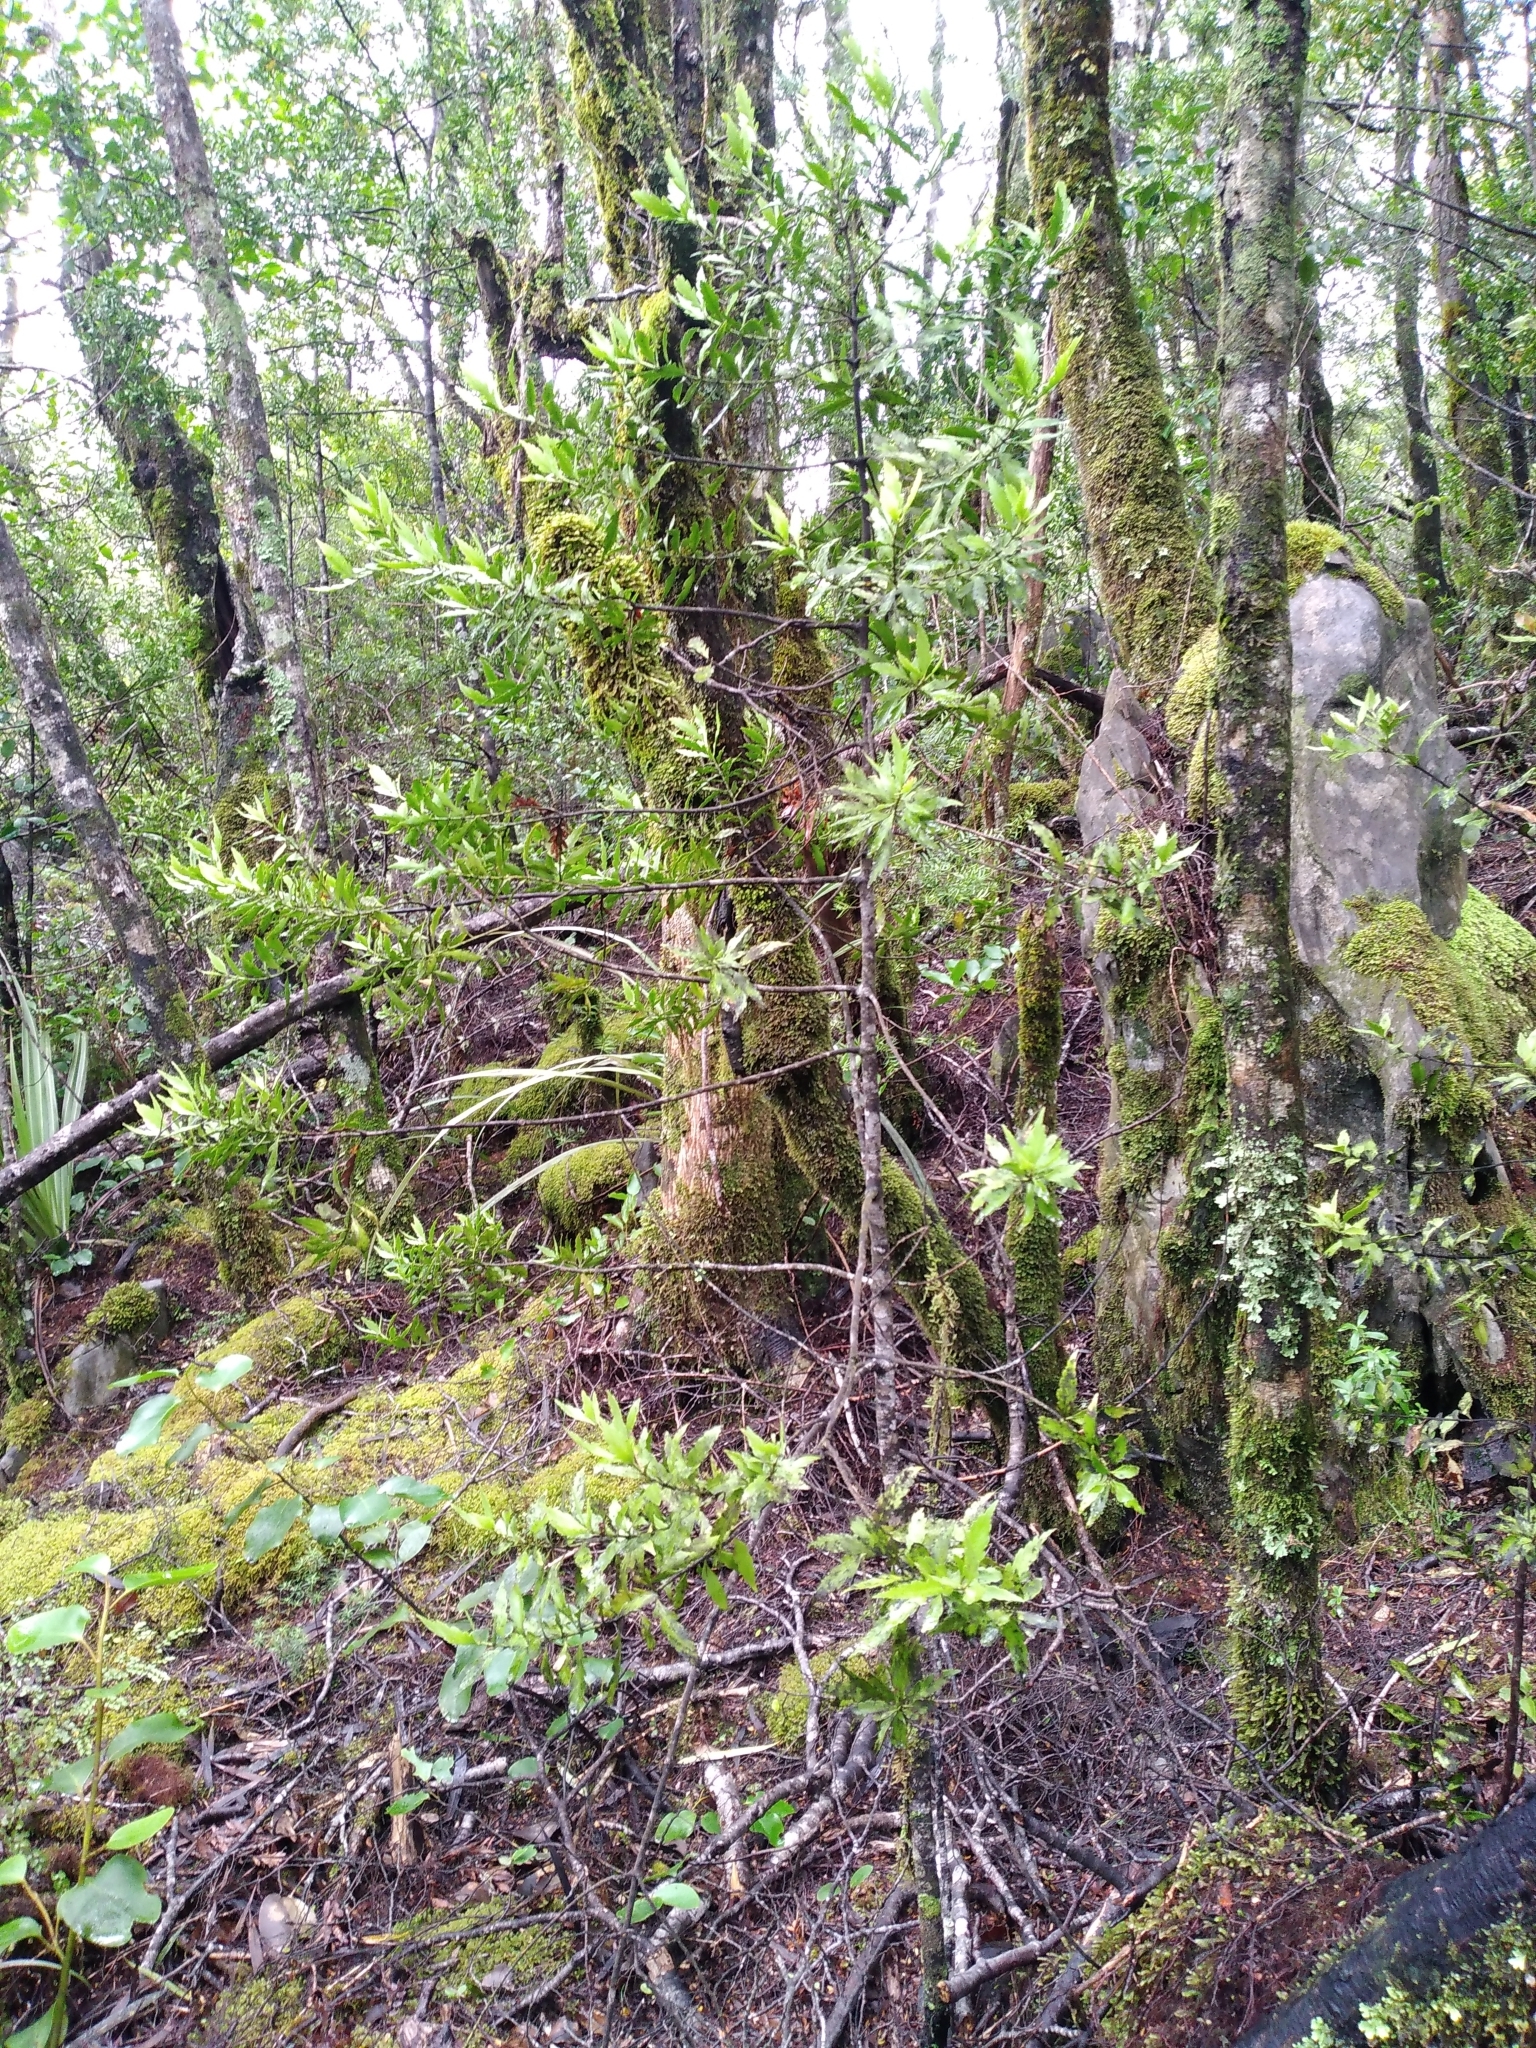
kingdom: Plantae
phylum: Tracheophyta
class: Pinopsida
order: Pinales
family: Phyllocladaceae
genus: Phyllocladus
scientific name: Phyllocladus trichomanoides
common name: Celery pine
